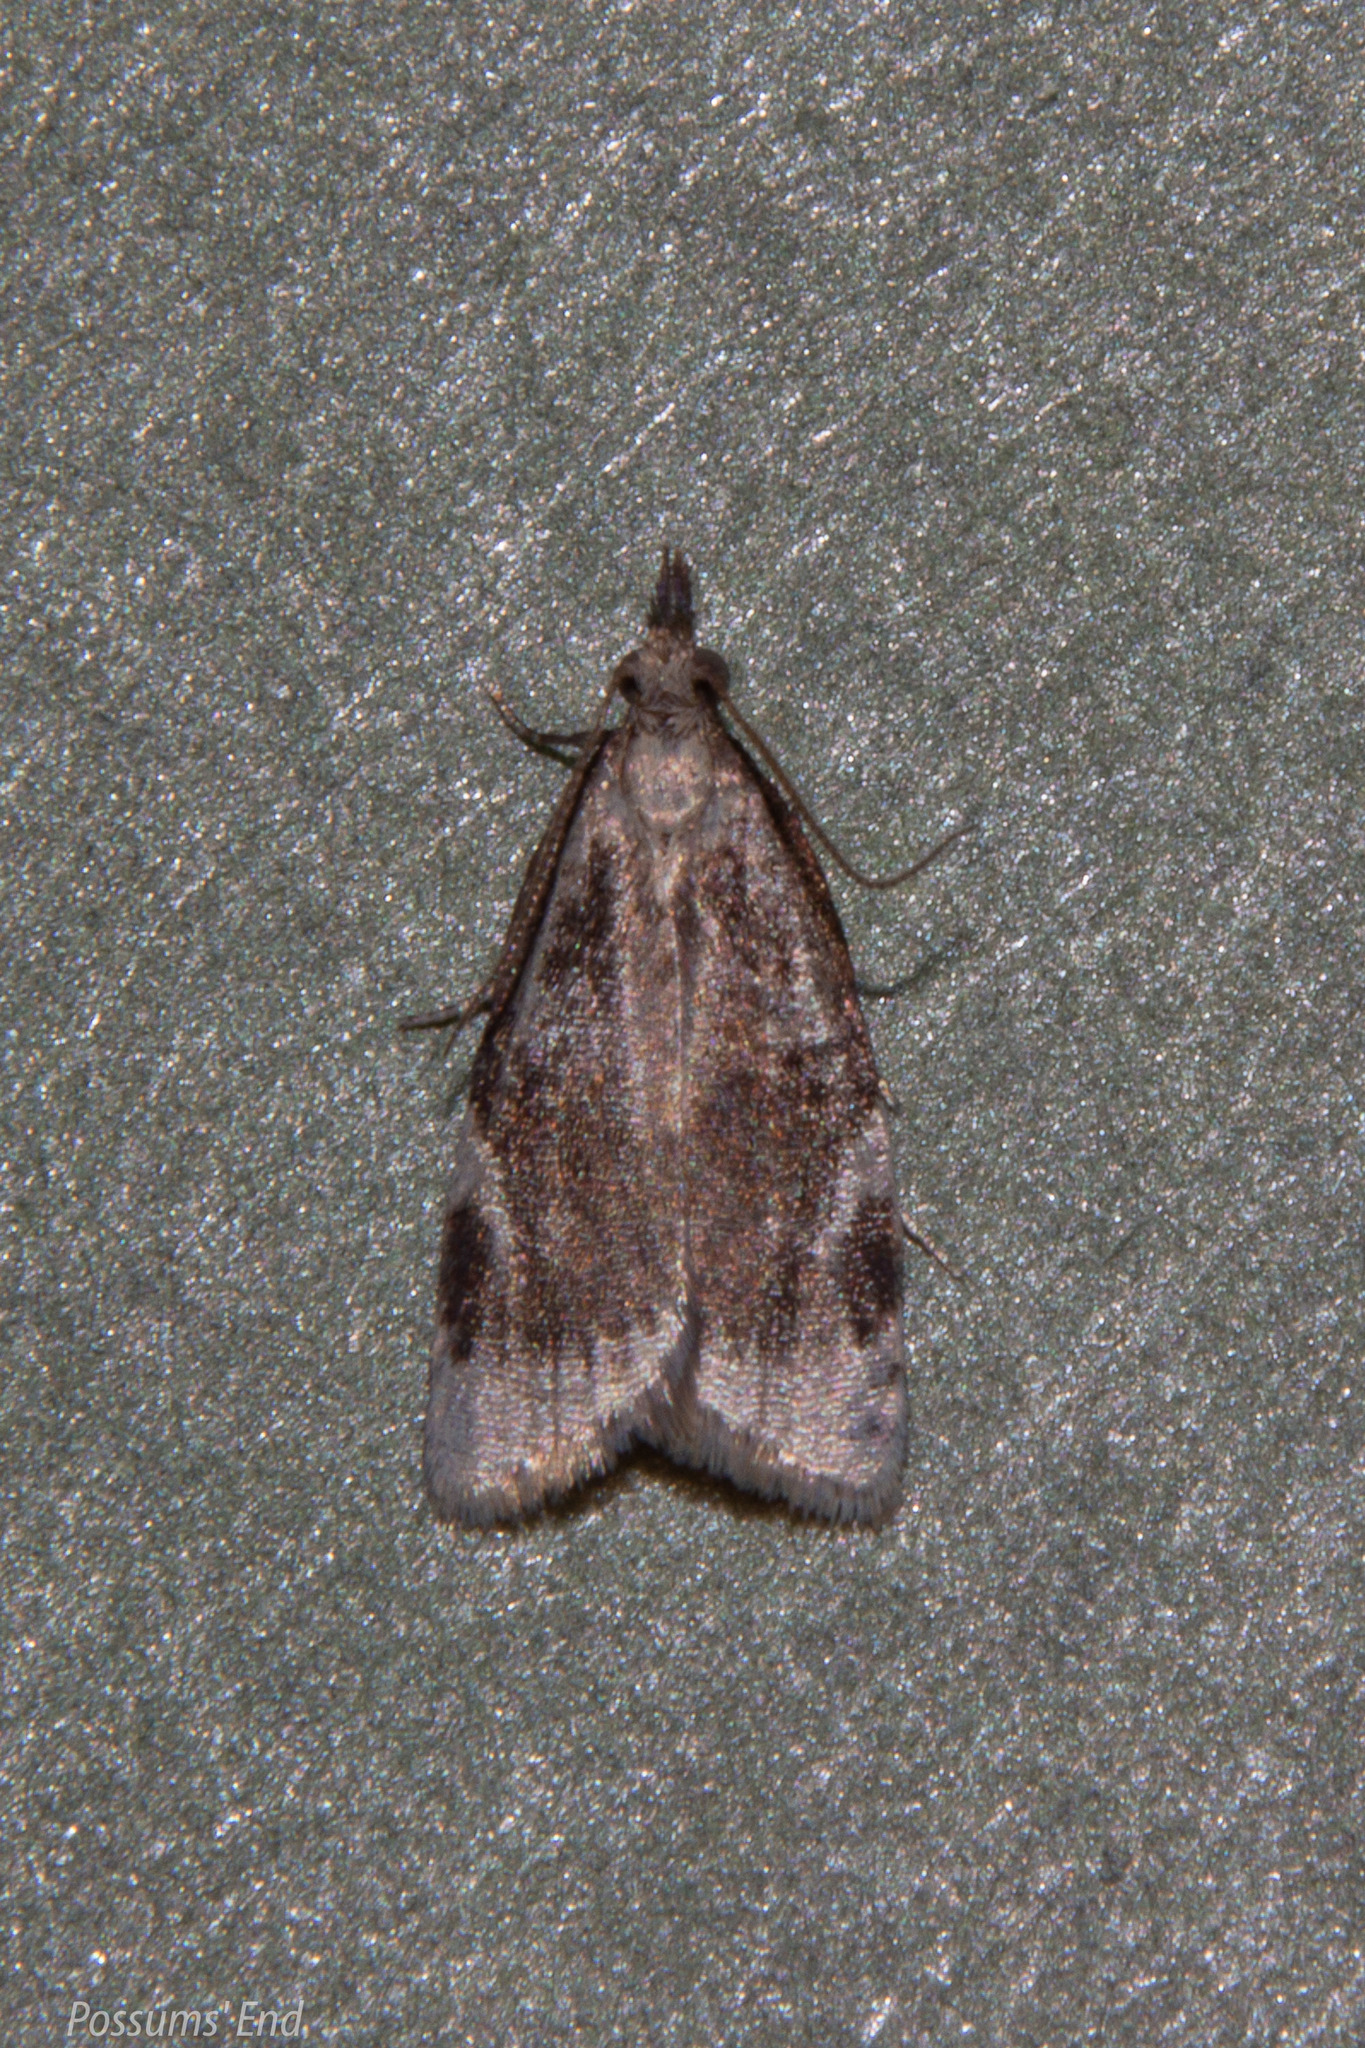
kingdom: Animalia
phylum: Arthropoda
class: Insecta
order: Lepidoptera
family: Tortricidae
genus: Catamacta
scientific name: Catamacta gavisana
